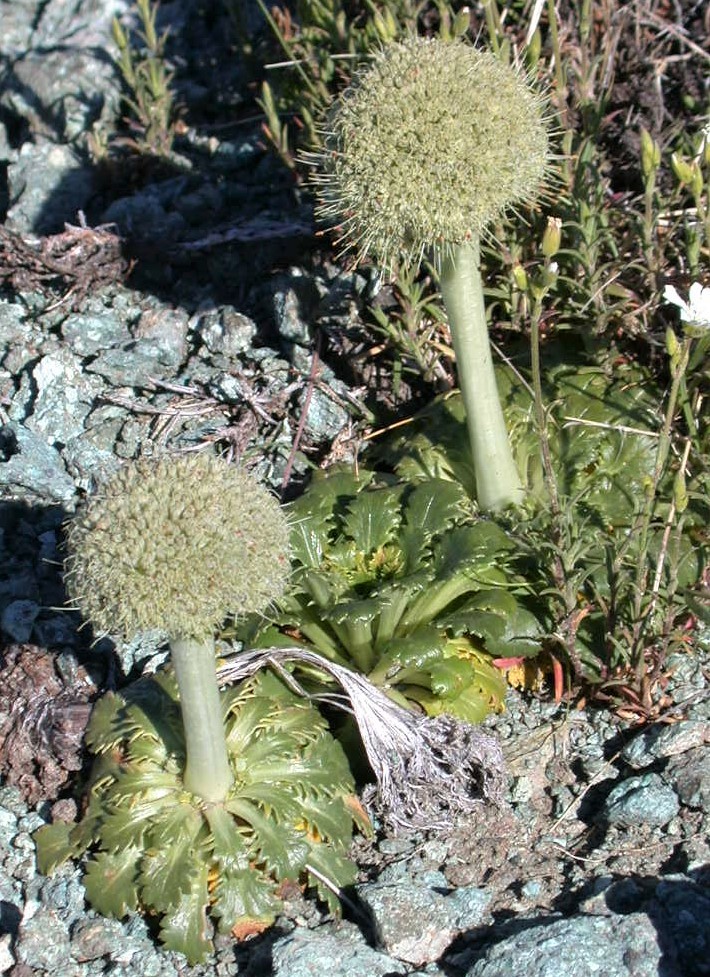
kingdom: Plantae
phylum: Tracheophyta
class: Magnoliopsida
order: Asterales
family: Calyceraceae
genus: Gamocarpha
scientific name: Gamocarpha macrocephala
